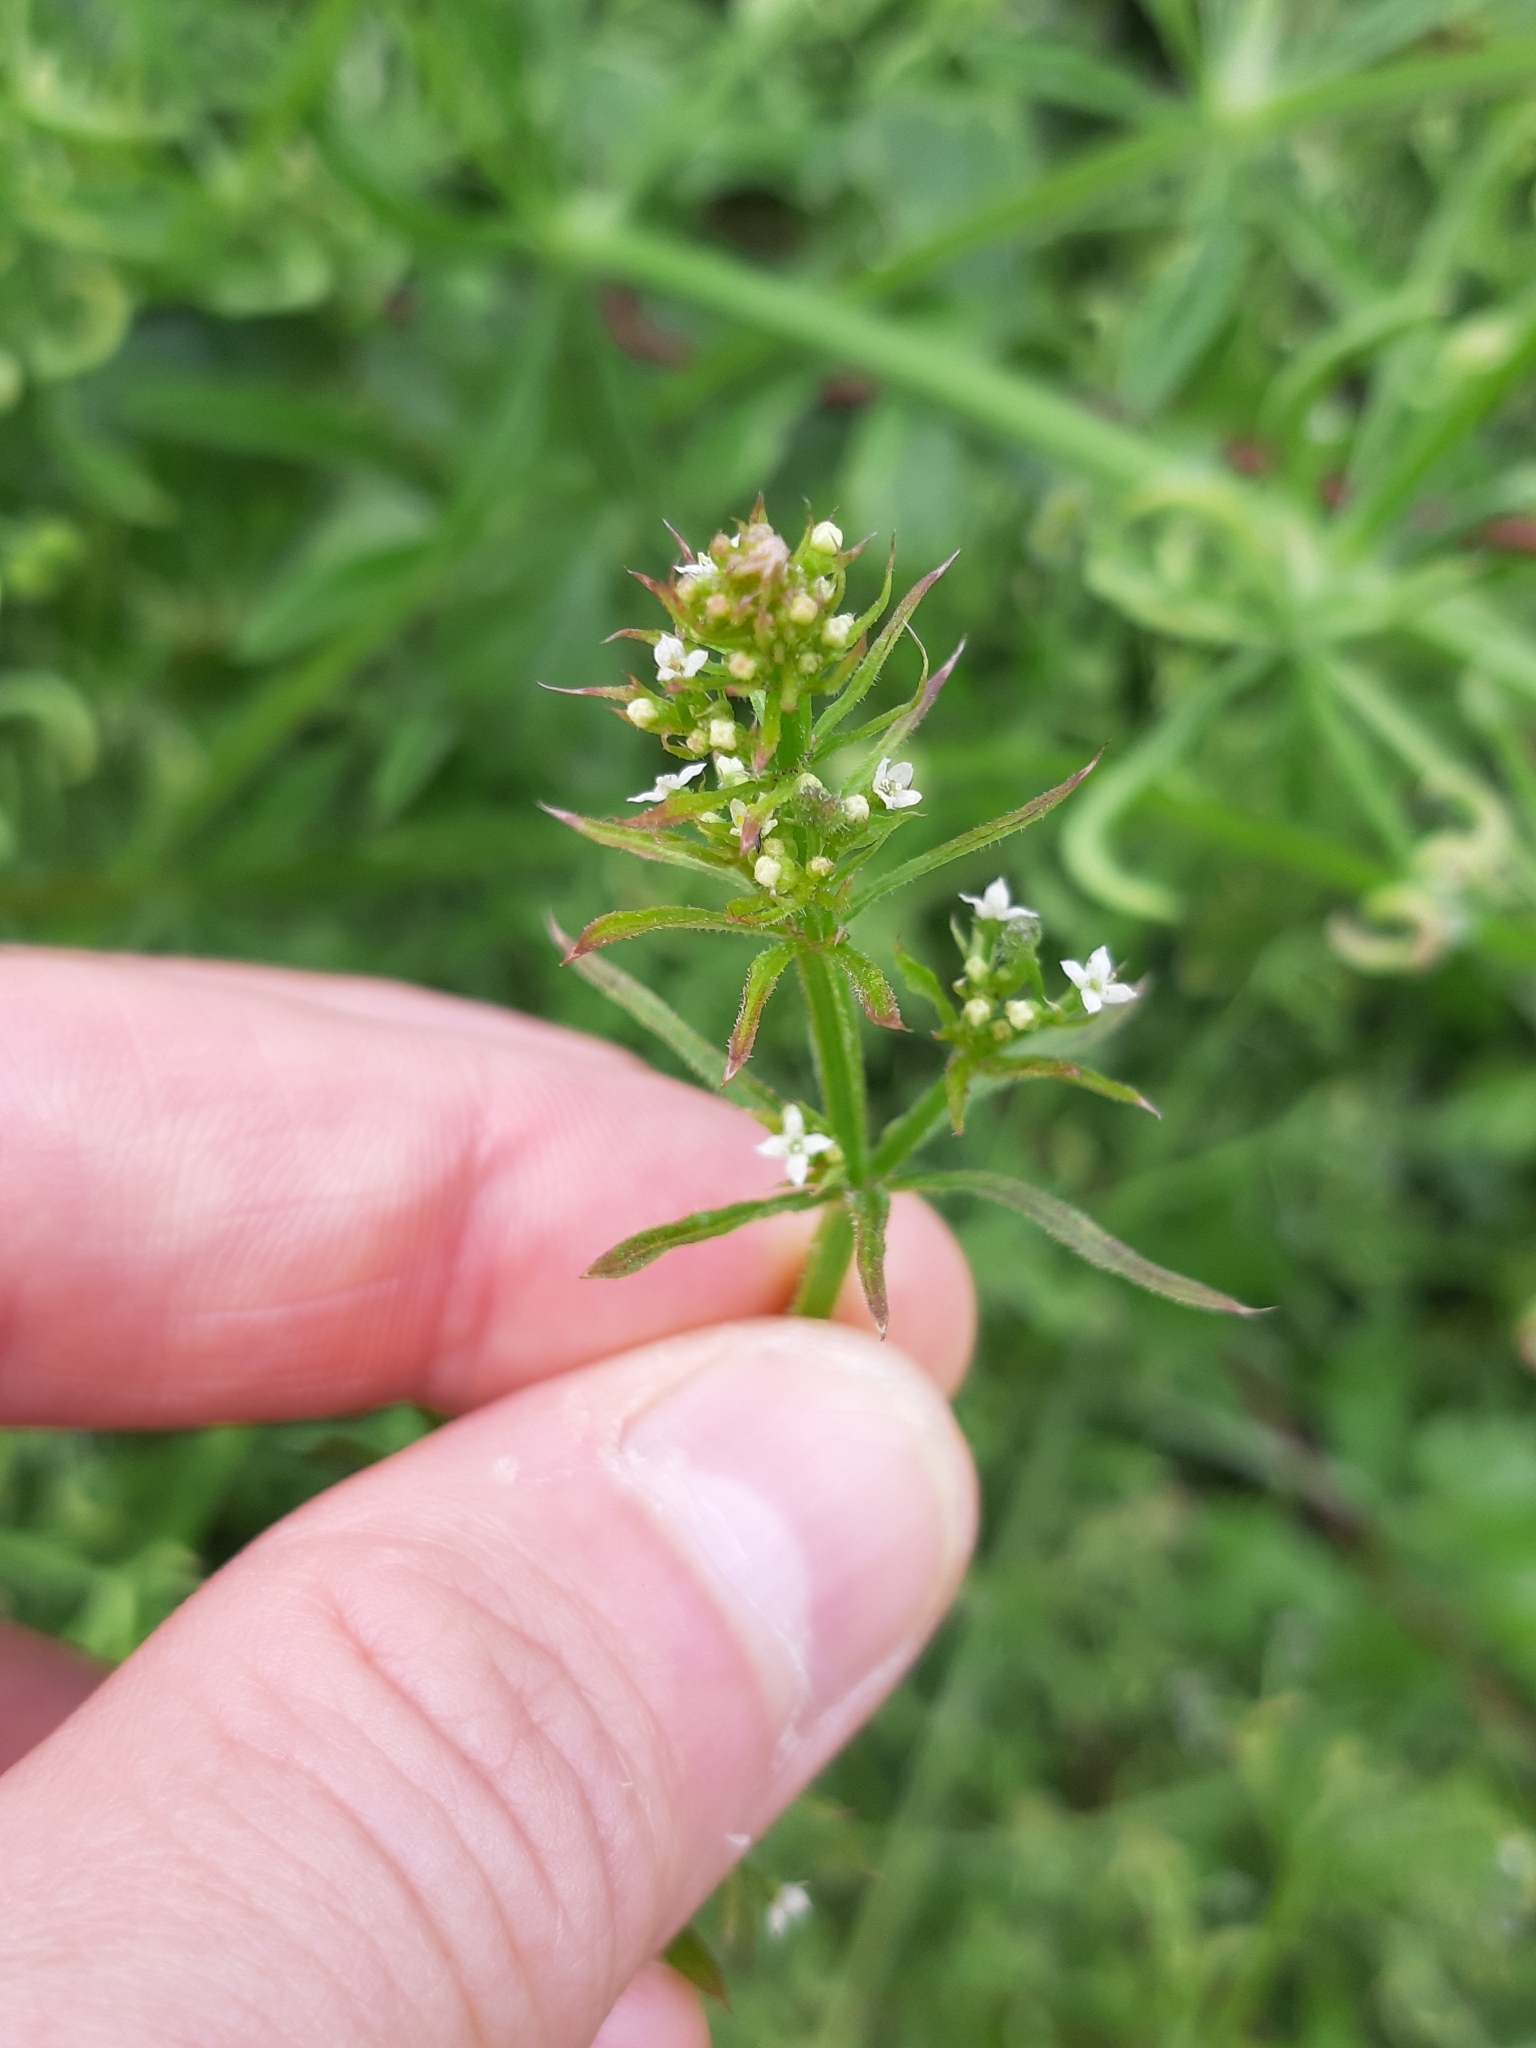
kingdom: Plantae
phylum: Tracheophyta
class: Magnoliopsida
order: Gentianales
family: Rubiaceae
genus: Galium
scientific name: Galium aparine
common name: Cleavers
